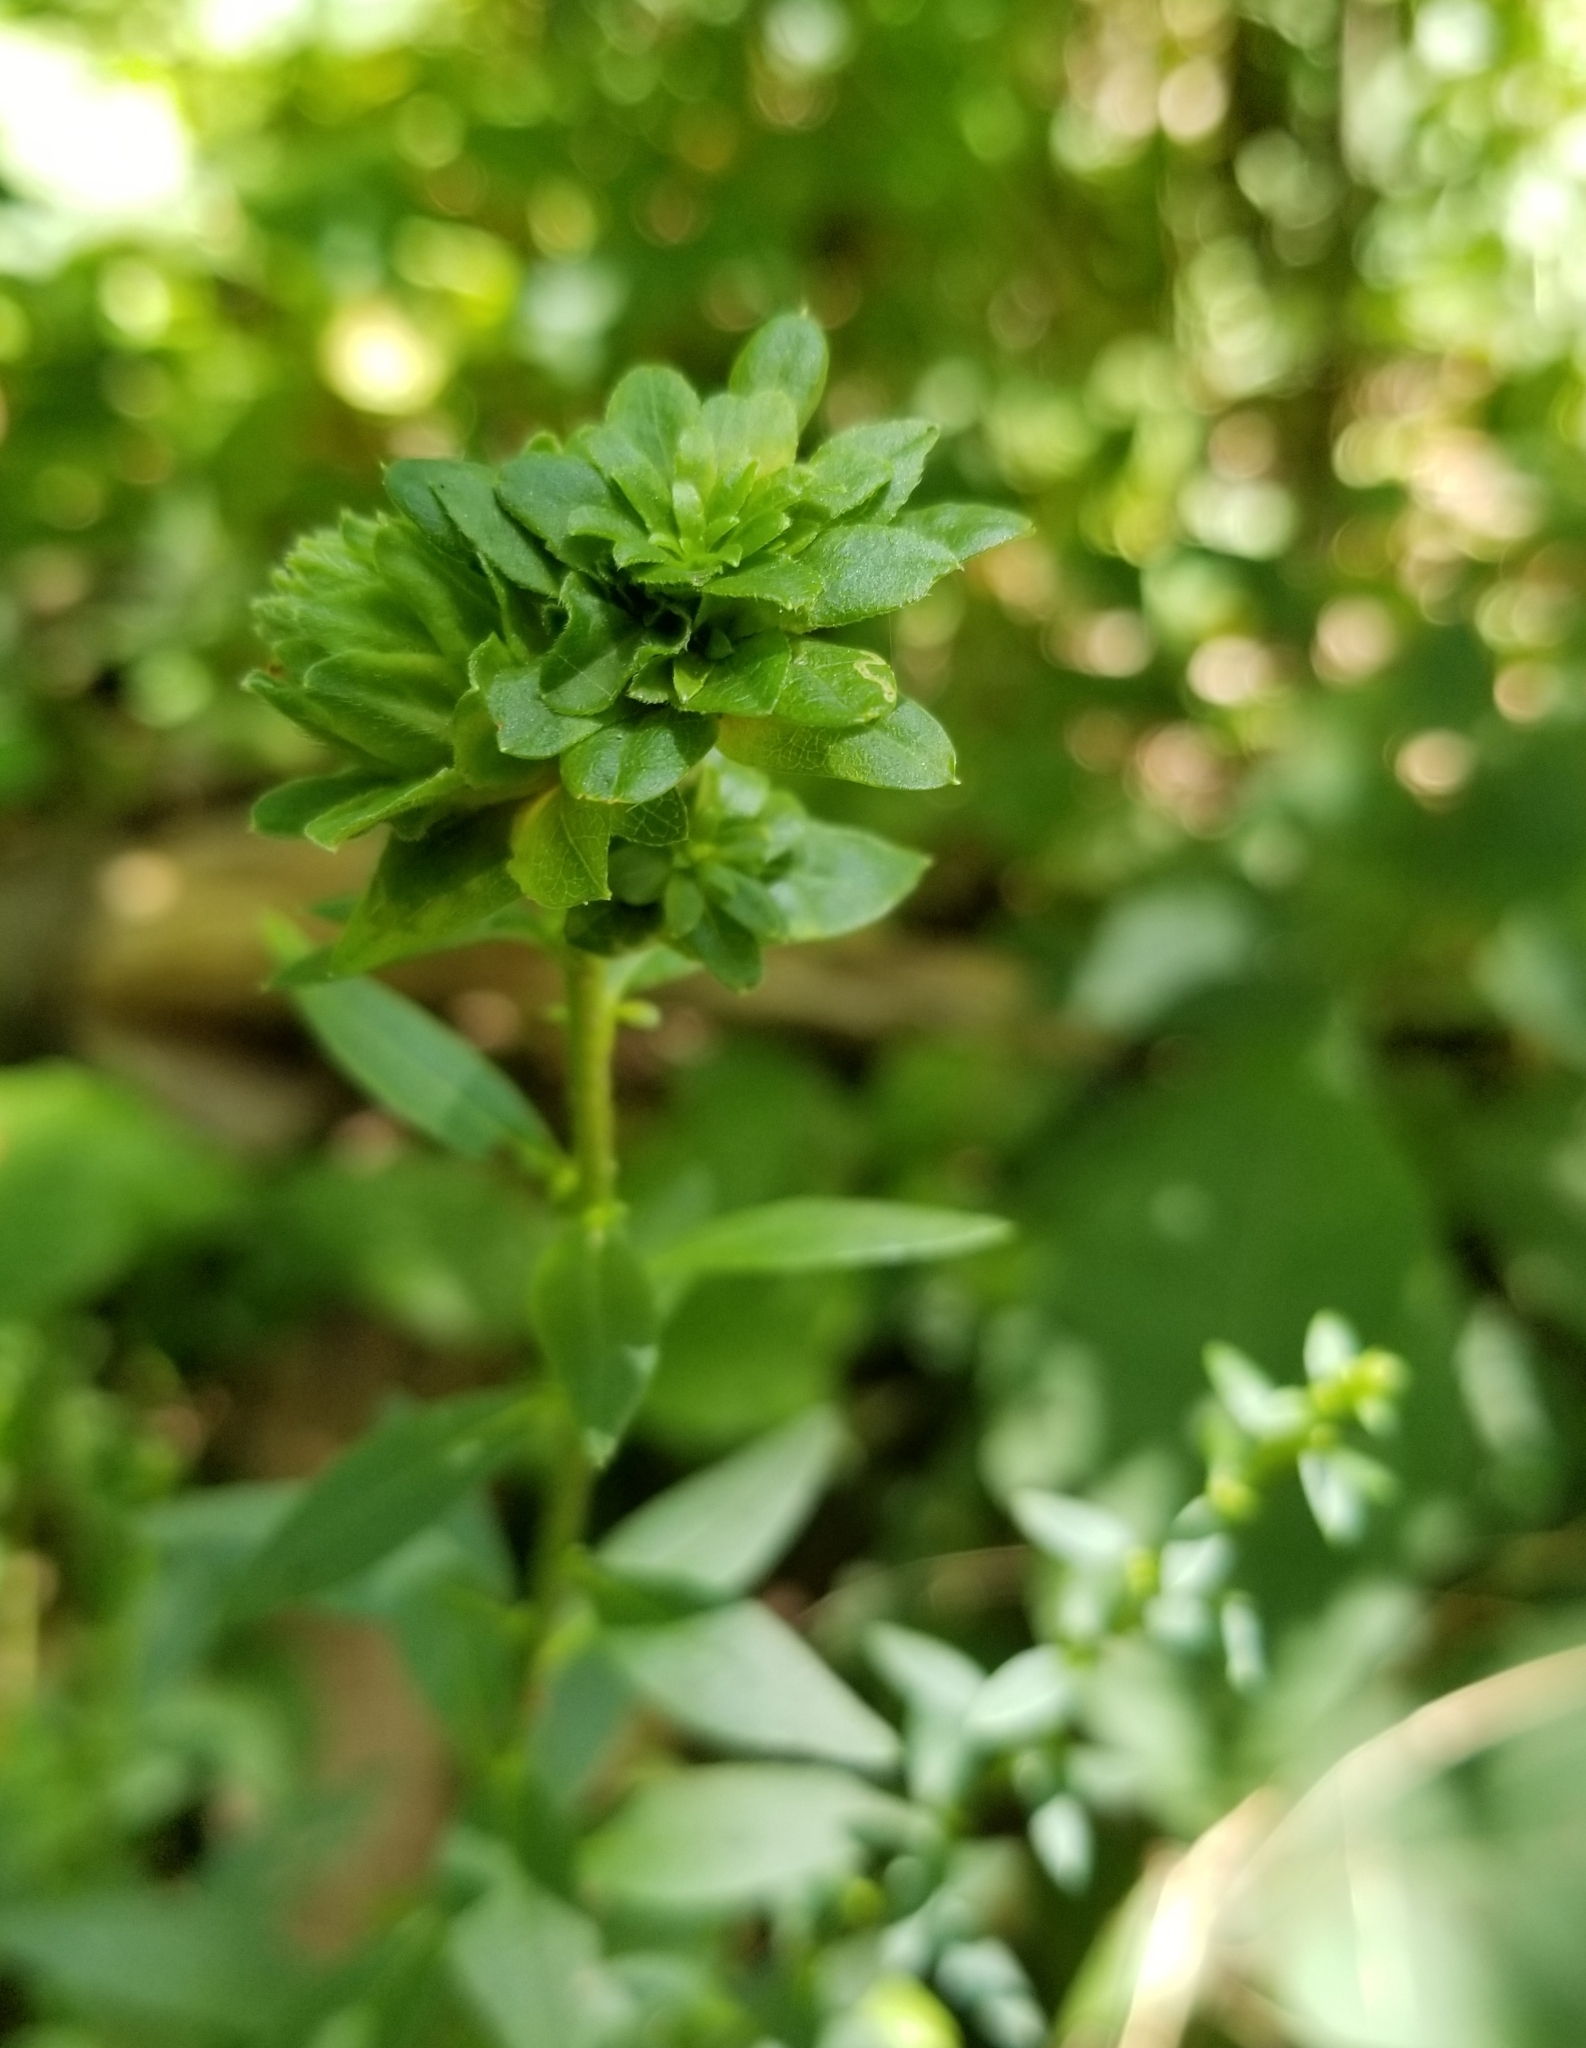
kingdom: Plantae
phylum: Tracheophyta
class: Magnoliopsida
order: Asterales
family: Asteraceae
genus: Solidago
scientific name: Solidago bicolor
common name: Silverrod
